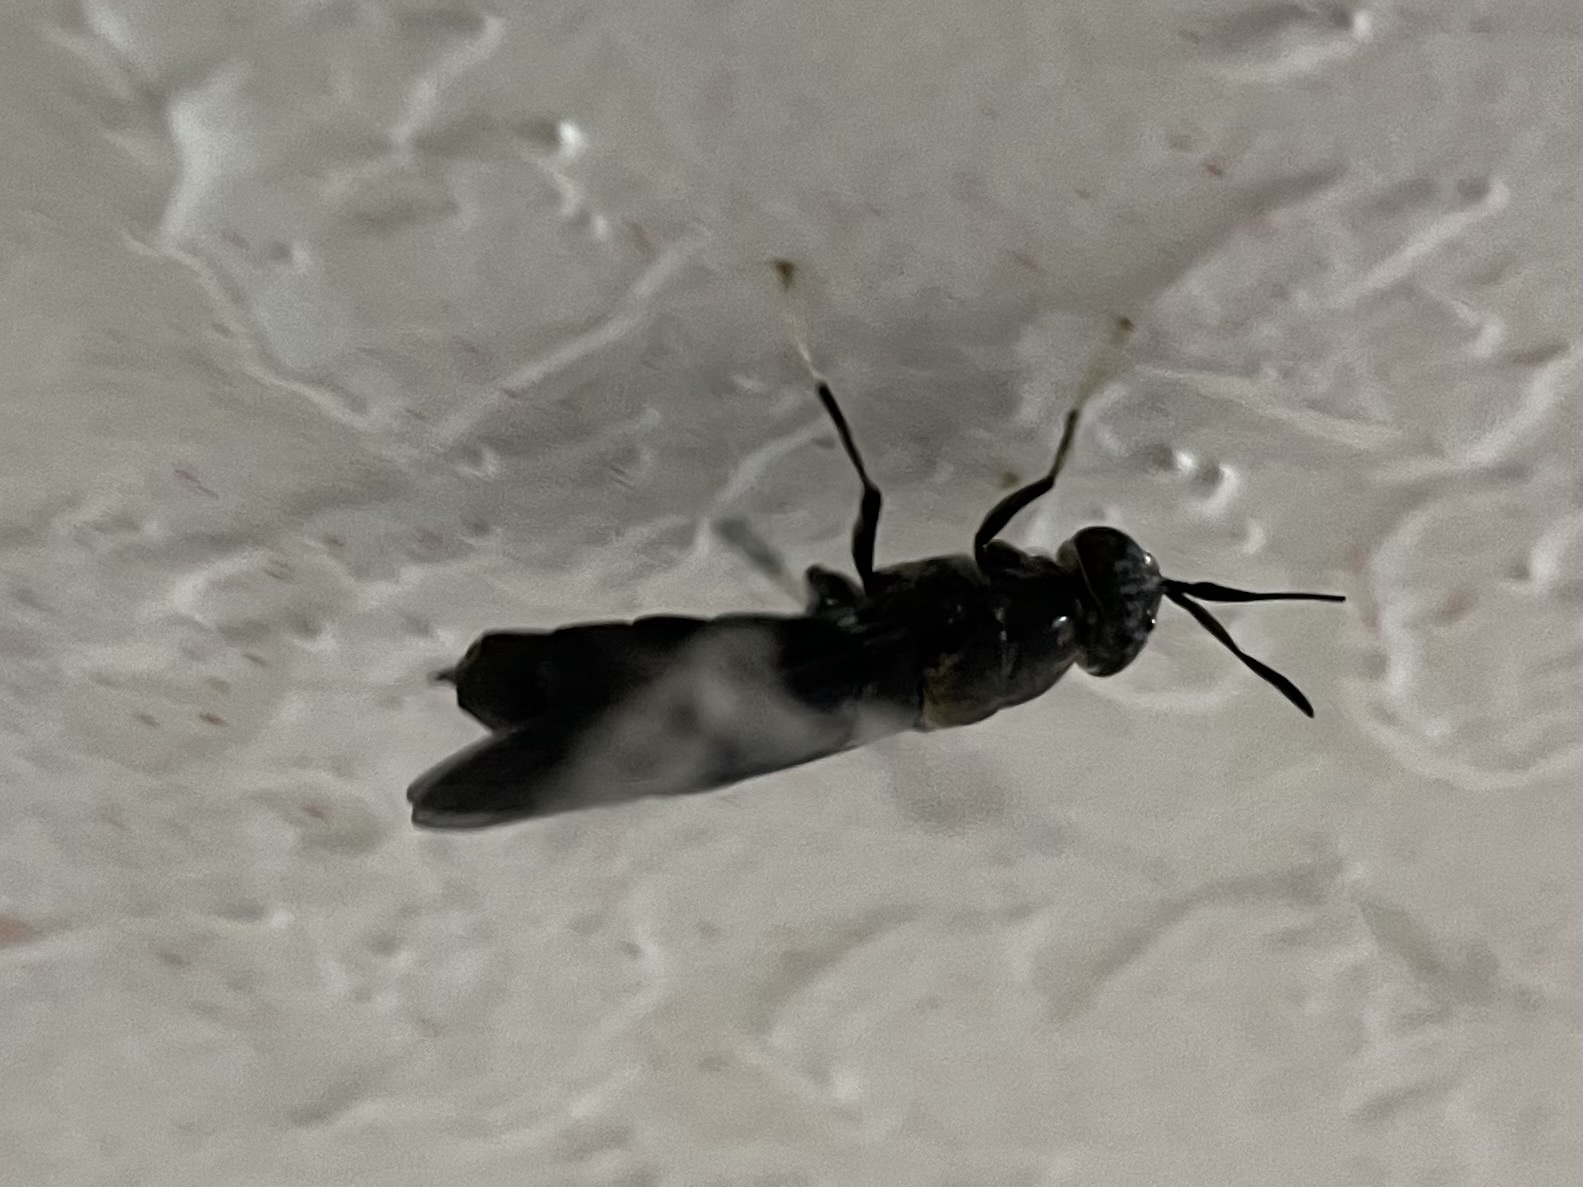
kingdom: Animalia
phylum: Arthropoda
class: Insecta
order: Diptera
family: Stratiomyidae
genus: Hermetia
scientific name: Hermetia illucens
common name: Black soldier fly
